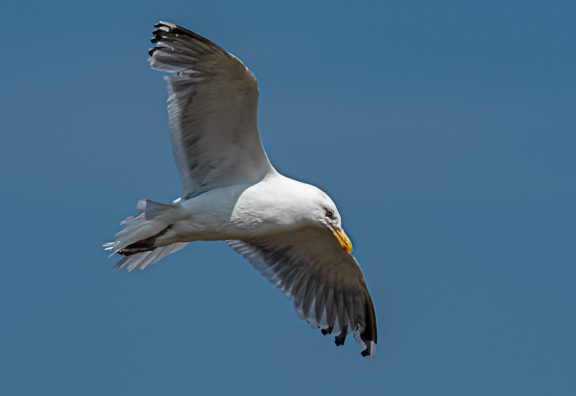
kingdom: Animalia
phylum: Chordata
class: Aves
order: Charadriiformes
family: Laridae
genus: Larus
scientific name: Larus argentatus
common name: Herring gull
